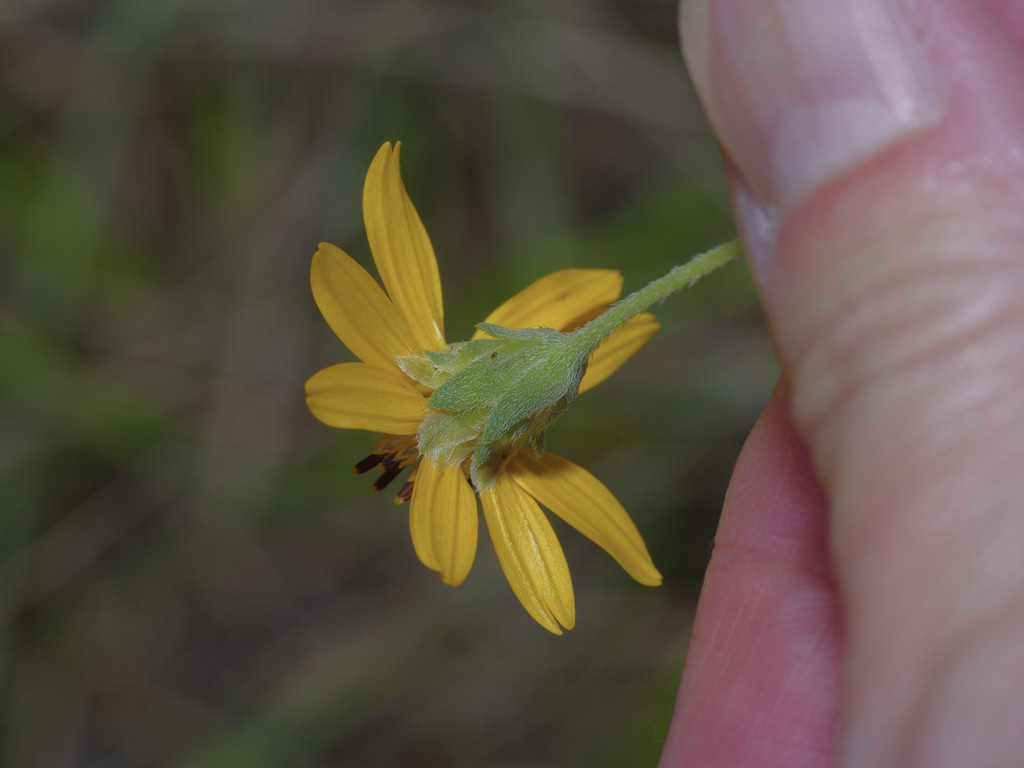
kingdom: Plantae
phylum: Tracheophyta
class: Magnoliopsida
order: Asterales
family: Asteraceae
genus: Wedelia
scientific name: Wedelia acapulcensis
